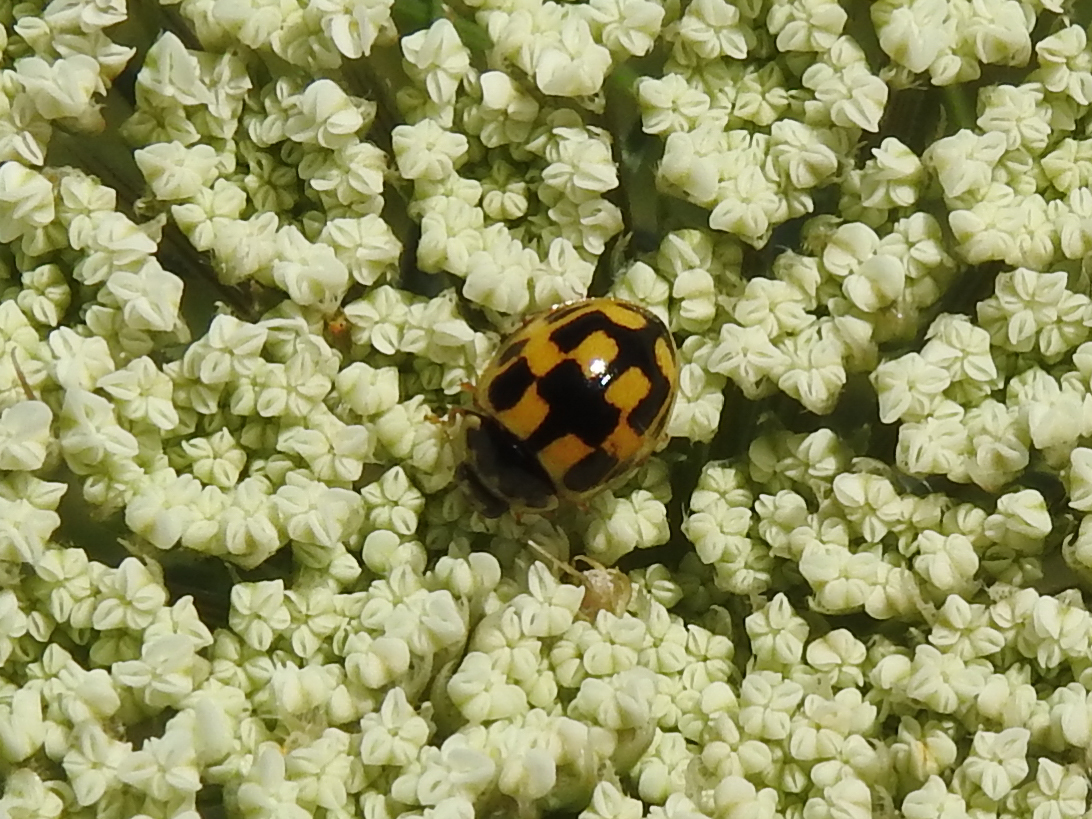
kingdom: Animalia
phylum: Arthropoda
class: Insecta
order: Coleoptera
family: Coccinellidae
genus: Propylaea
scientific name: Propylaea quatuordecimpunctata
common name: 14-spotted ladybird beetle
